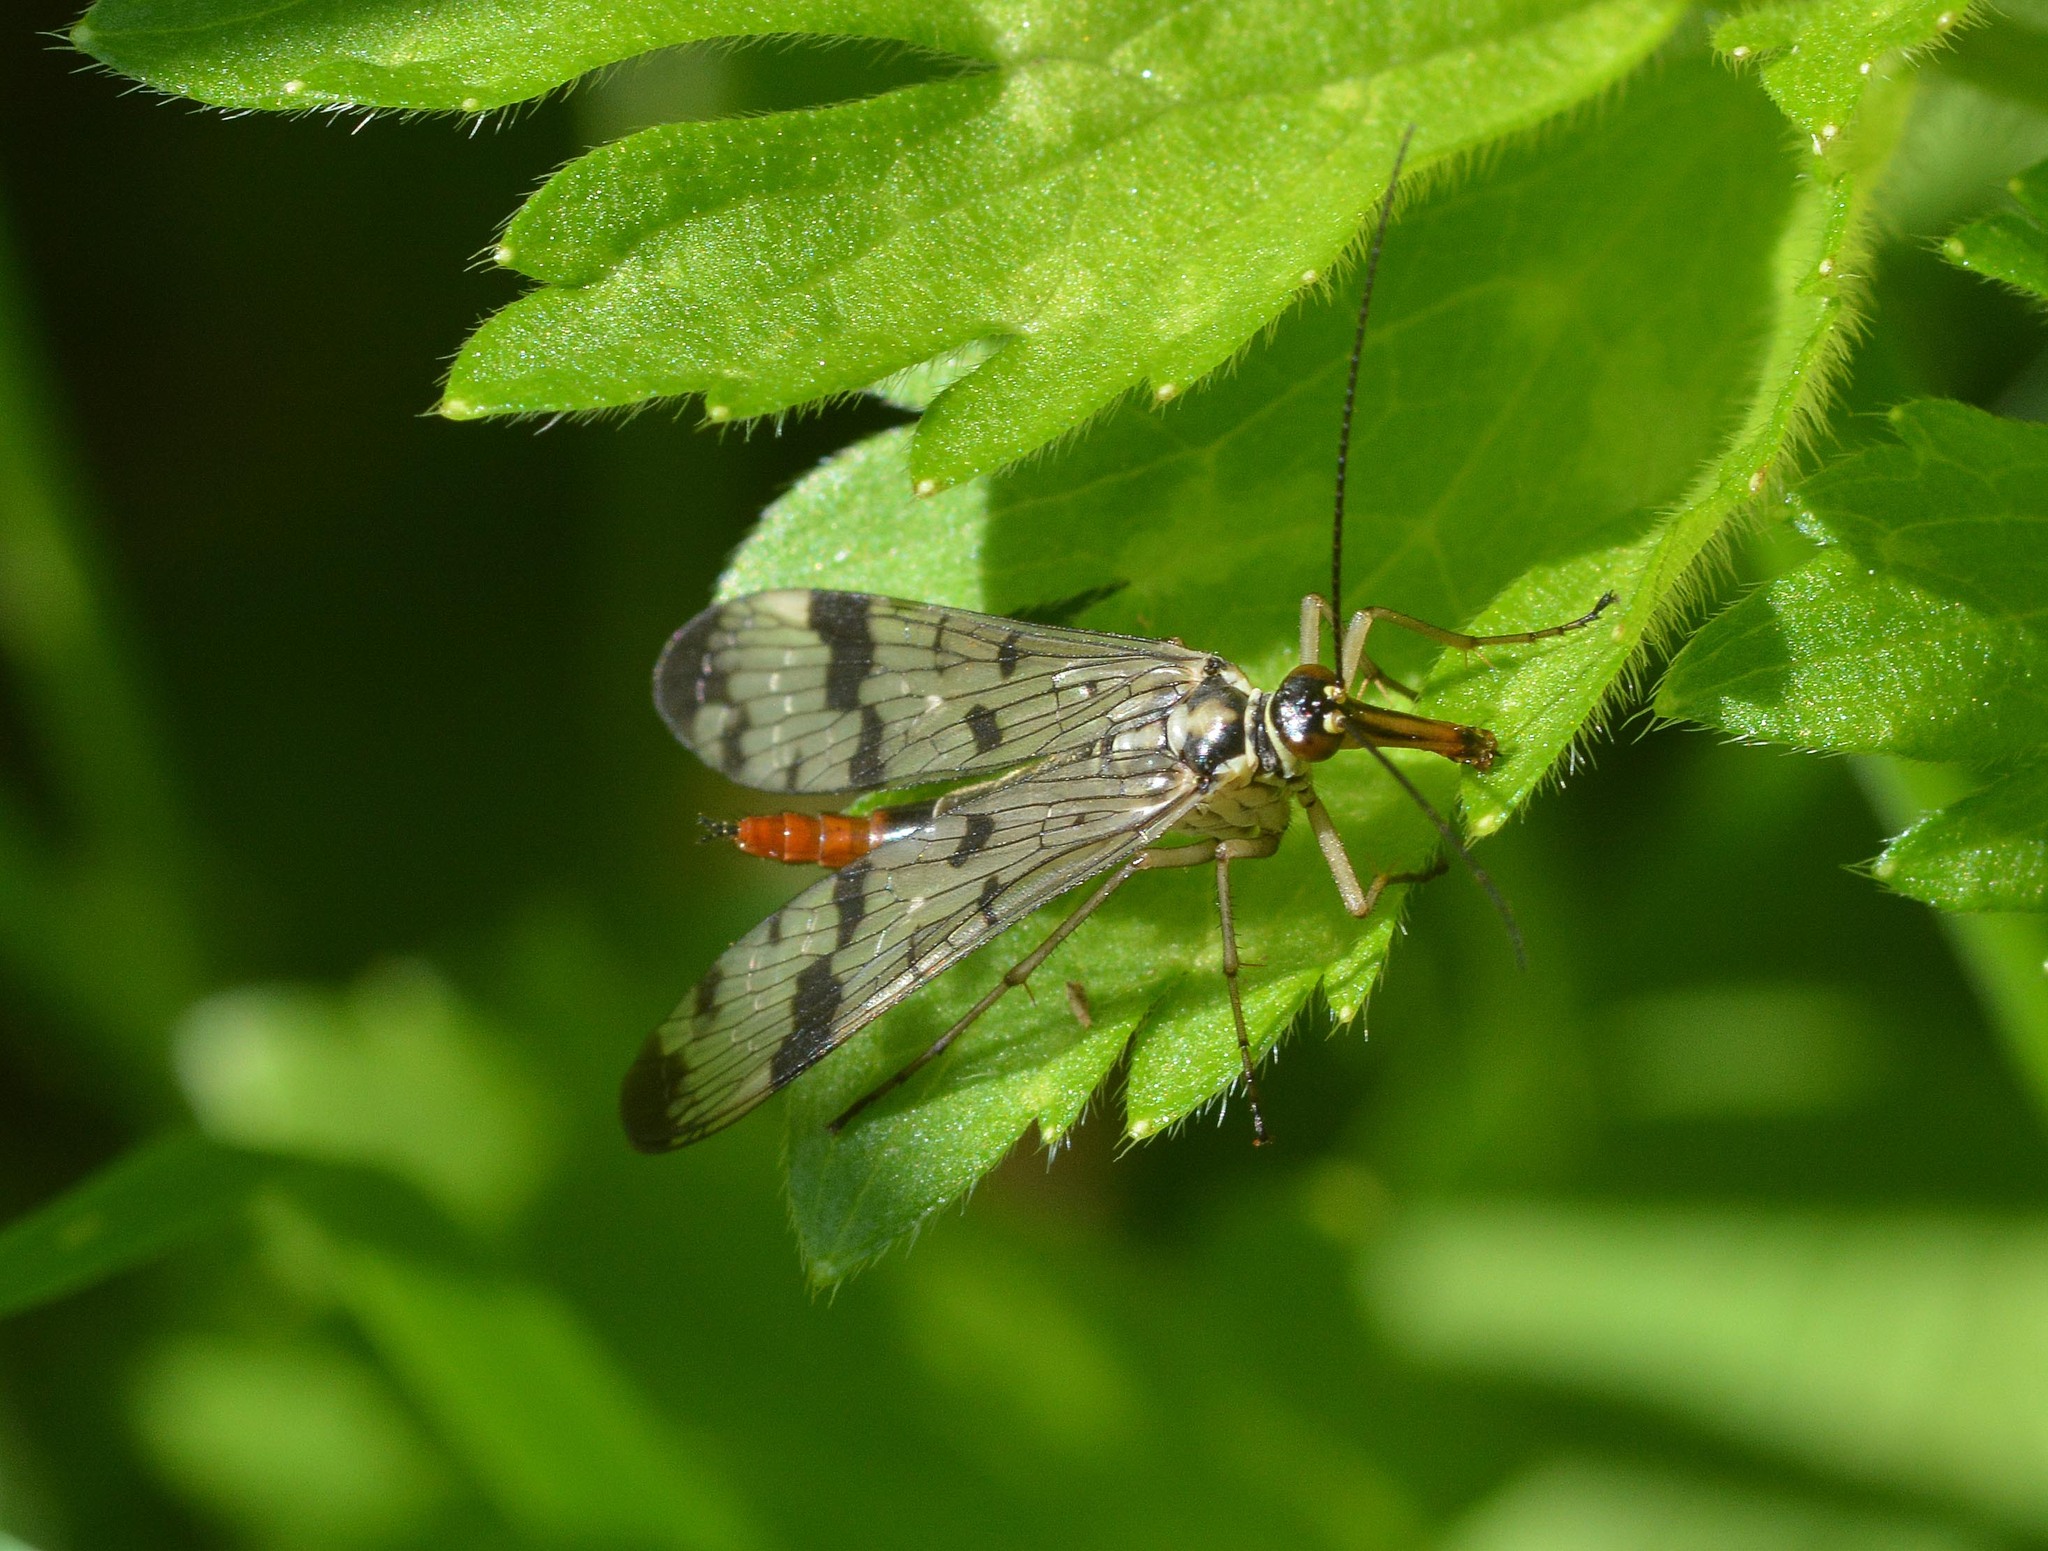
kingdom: Animalia
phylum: Arthropoda
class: Insecta
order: Mecoptera
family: Panorpidae
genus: Panorpa
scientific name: Panorpa communis
